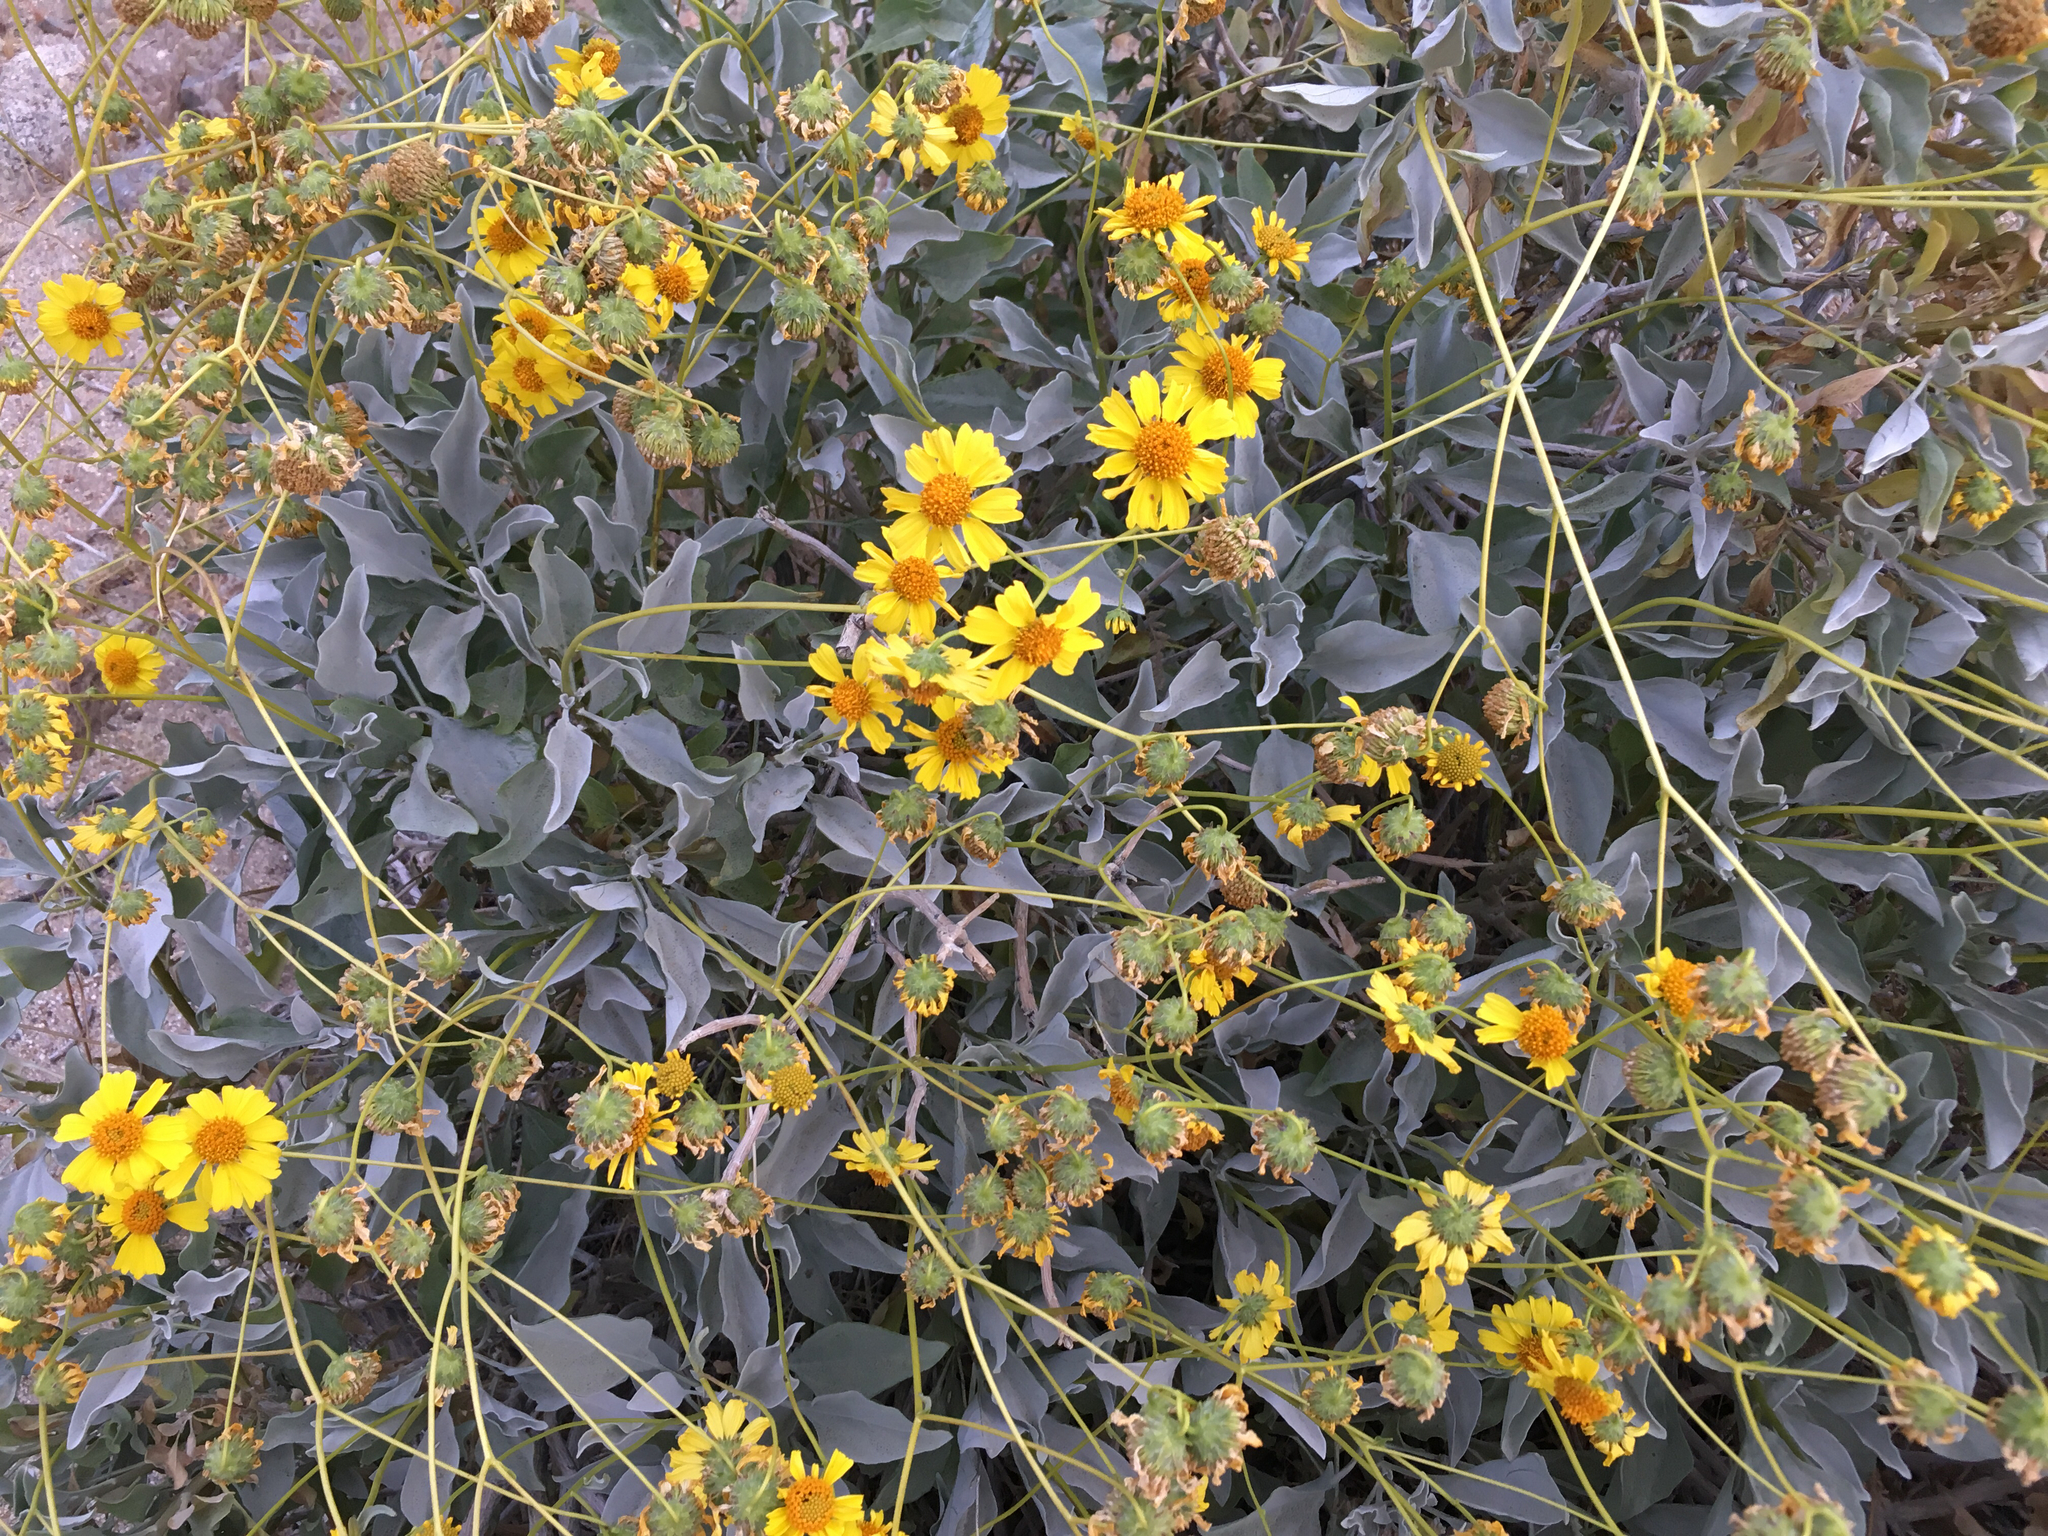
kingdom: Plantae
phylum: Tracheophyta
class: Magnoliopsida
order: Asterales
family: Asteraceae
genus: Encelia
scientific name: Encelia farinosa
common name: Brittlebush
